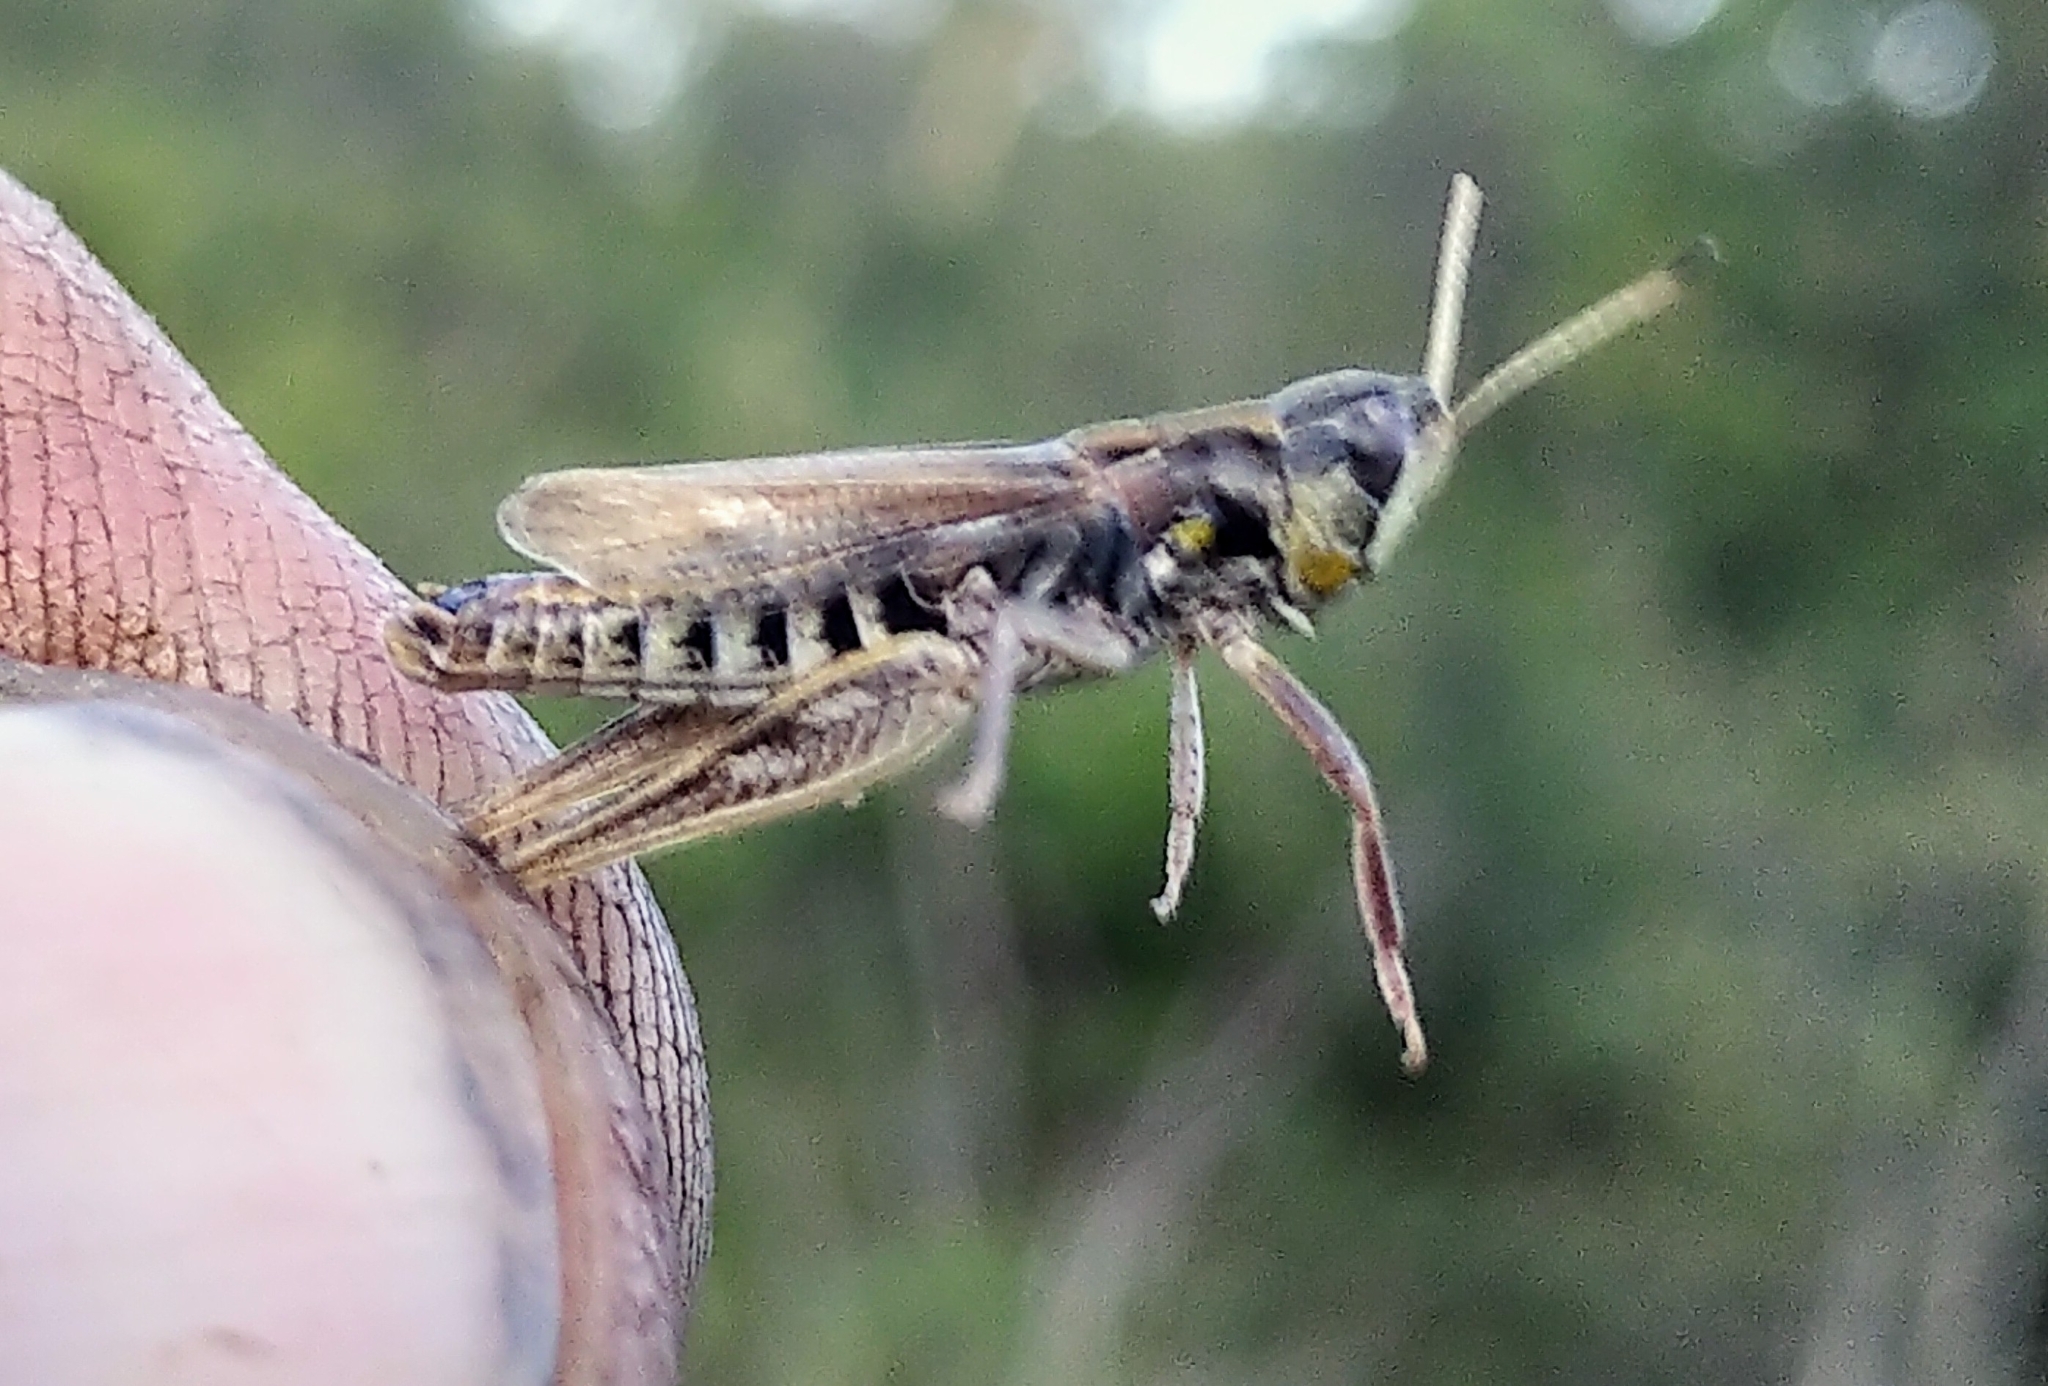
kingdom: Animalia
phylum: Arthropoda
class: Insecta
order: Orthoptera
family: Acrididae
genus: Aeropedellus
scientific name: Aeropedellus clavatus
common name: Clubhorned grasshopper
